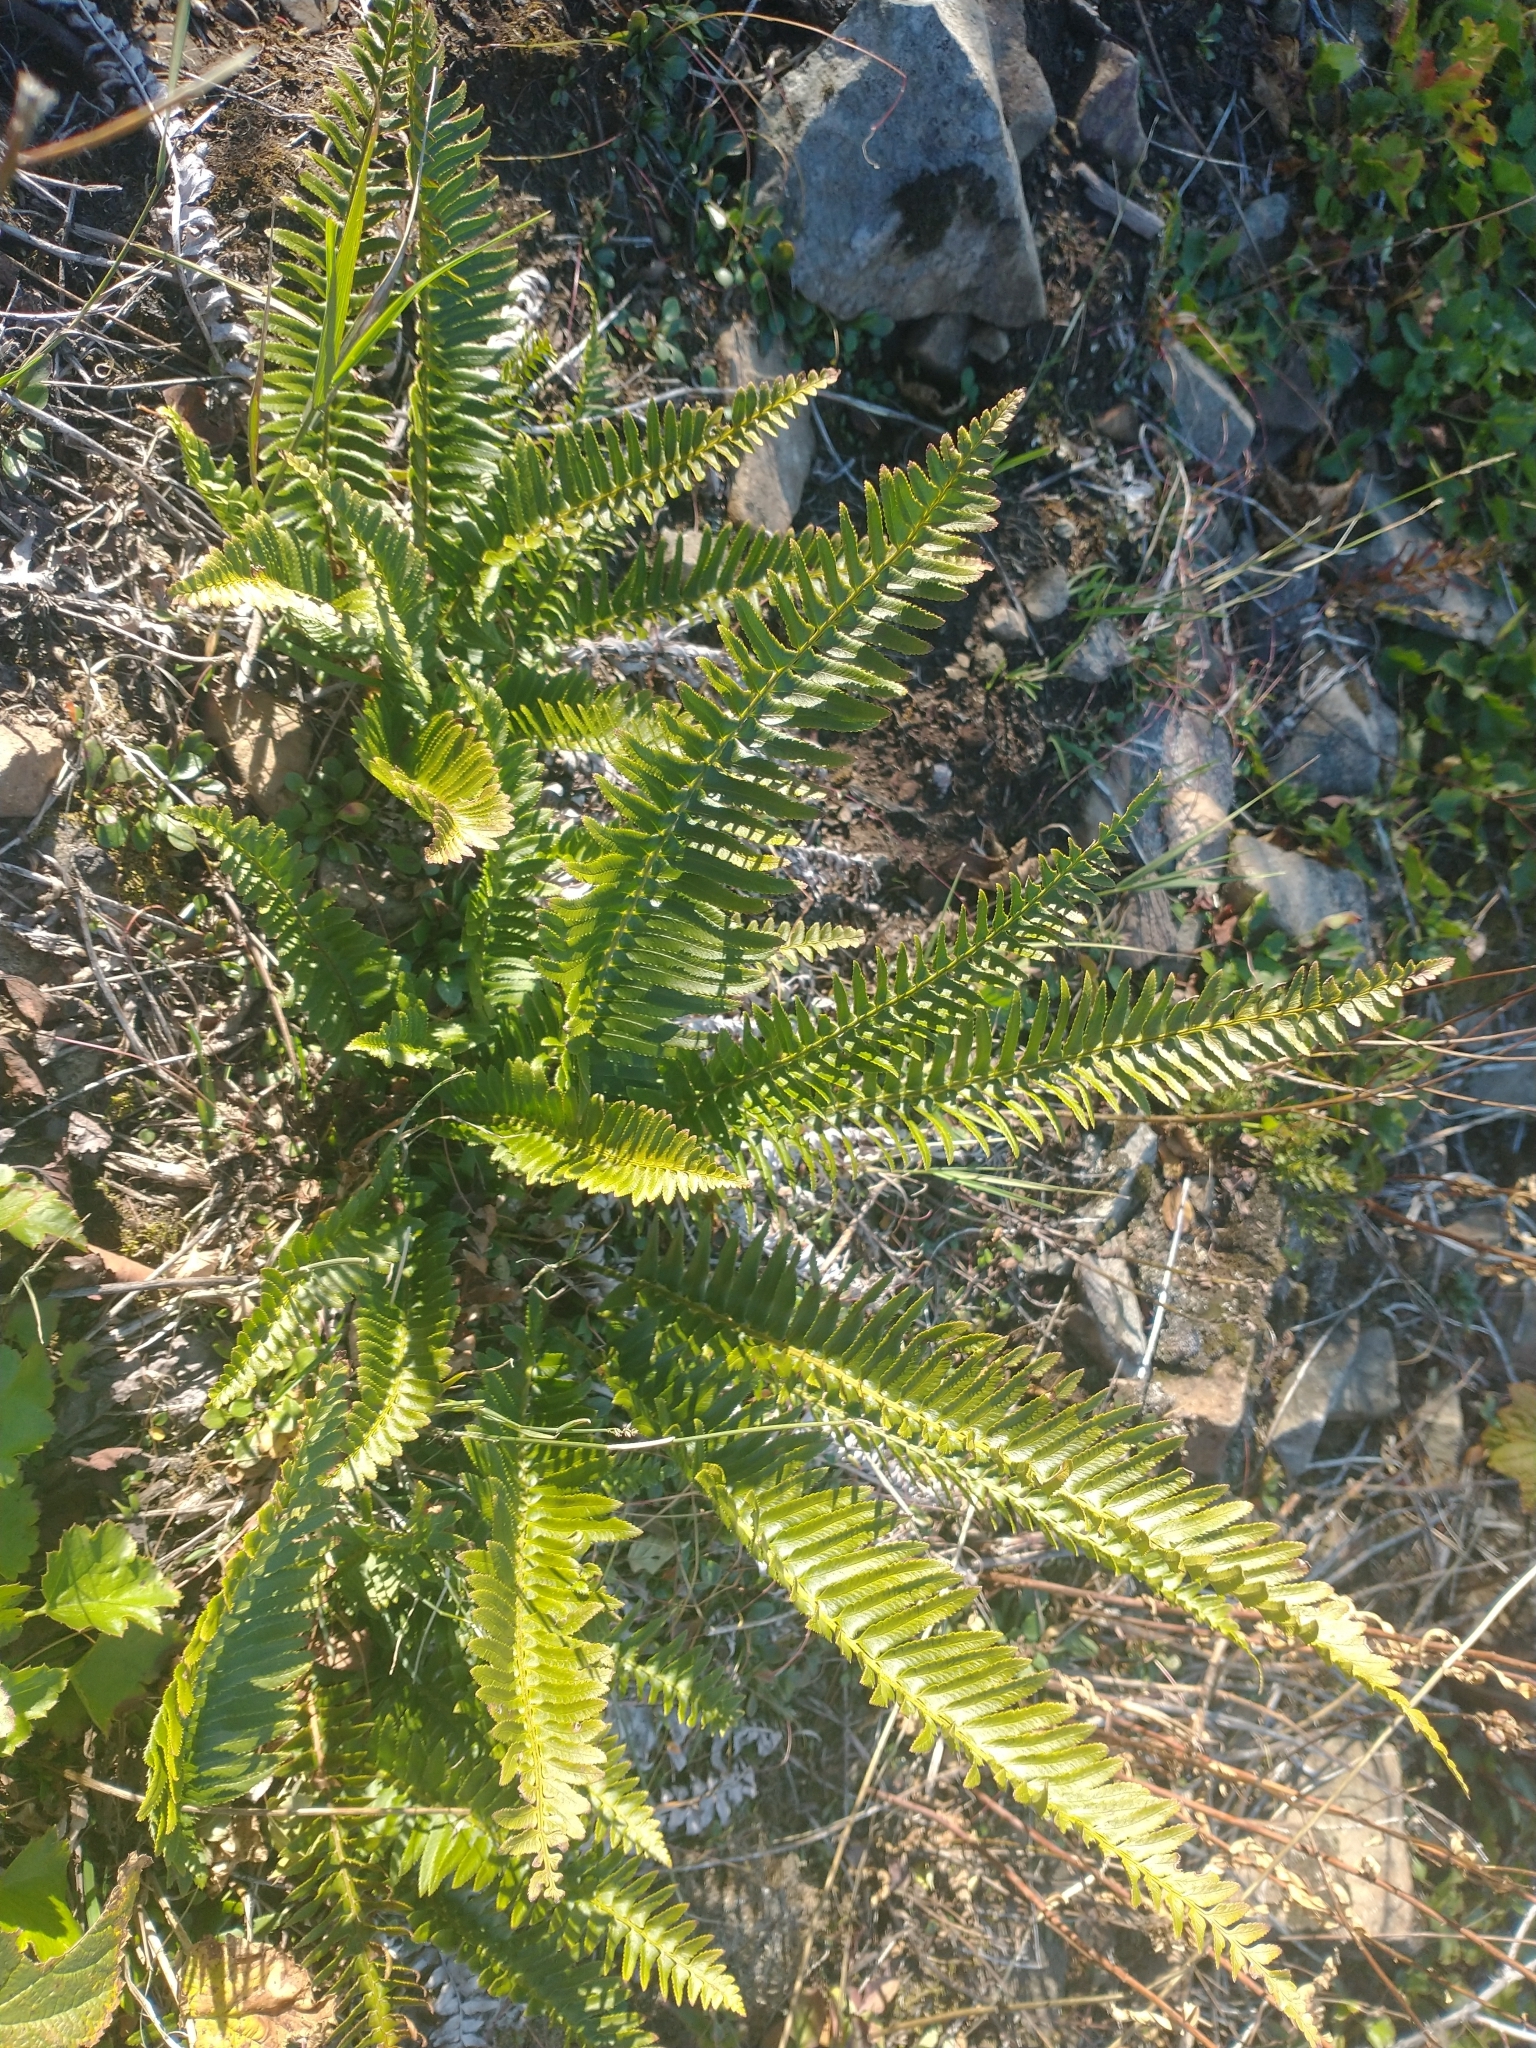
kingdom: Plantae
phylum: Tracheophyta
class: Polypodiopsida
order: Polypodiales
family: Dryopteridaceae
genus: Polystichum
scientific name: Polystichum imbricans
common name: Dwarf western sword fern
